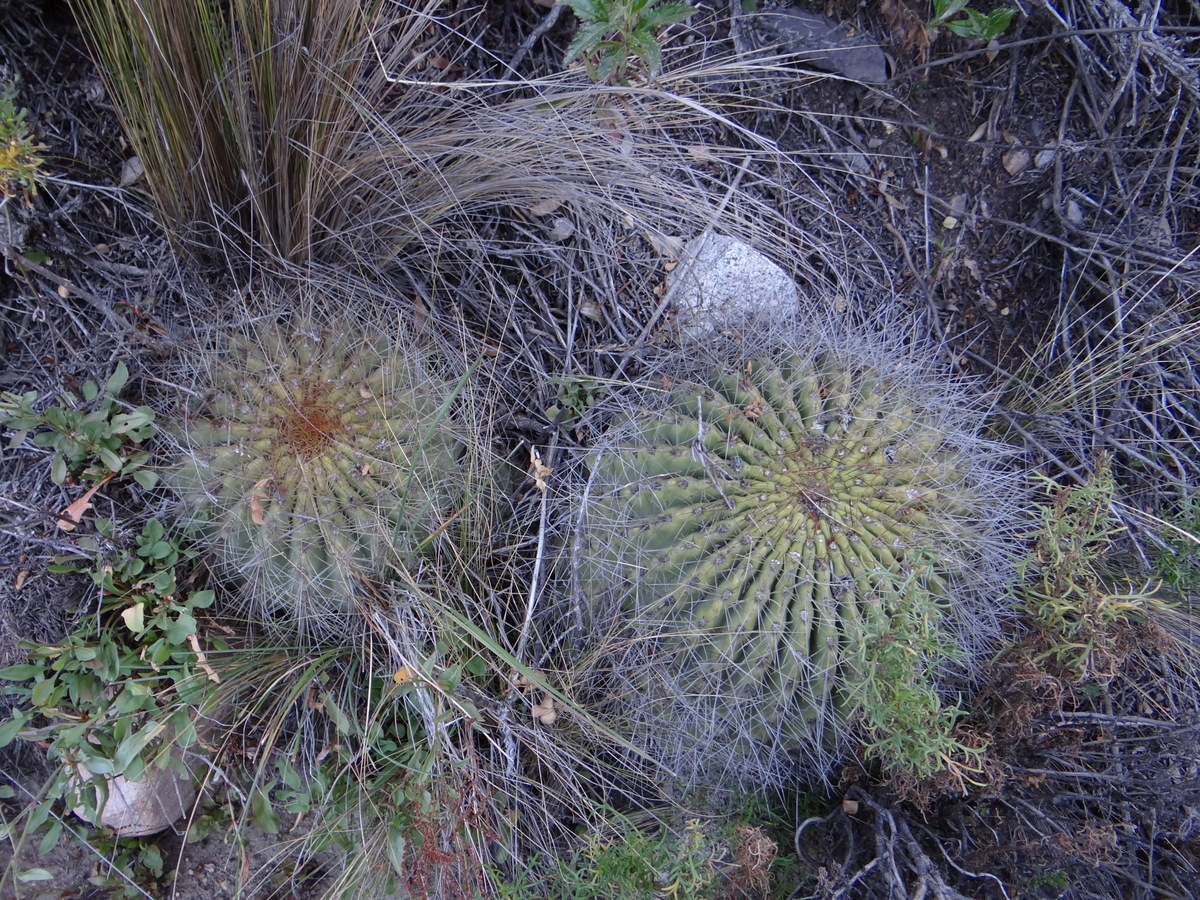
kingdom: Plantae
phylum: Tracheophyta
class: Magnoliopsida
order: Caryophyllales
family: Cactaceae
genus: Soehrensia
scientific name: Soehrensia formosa
